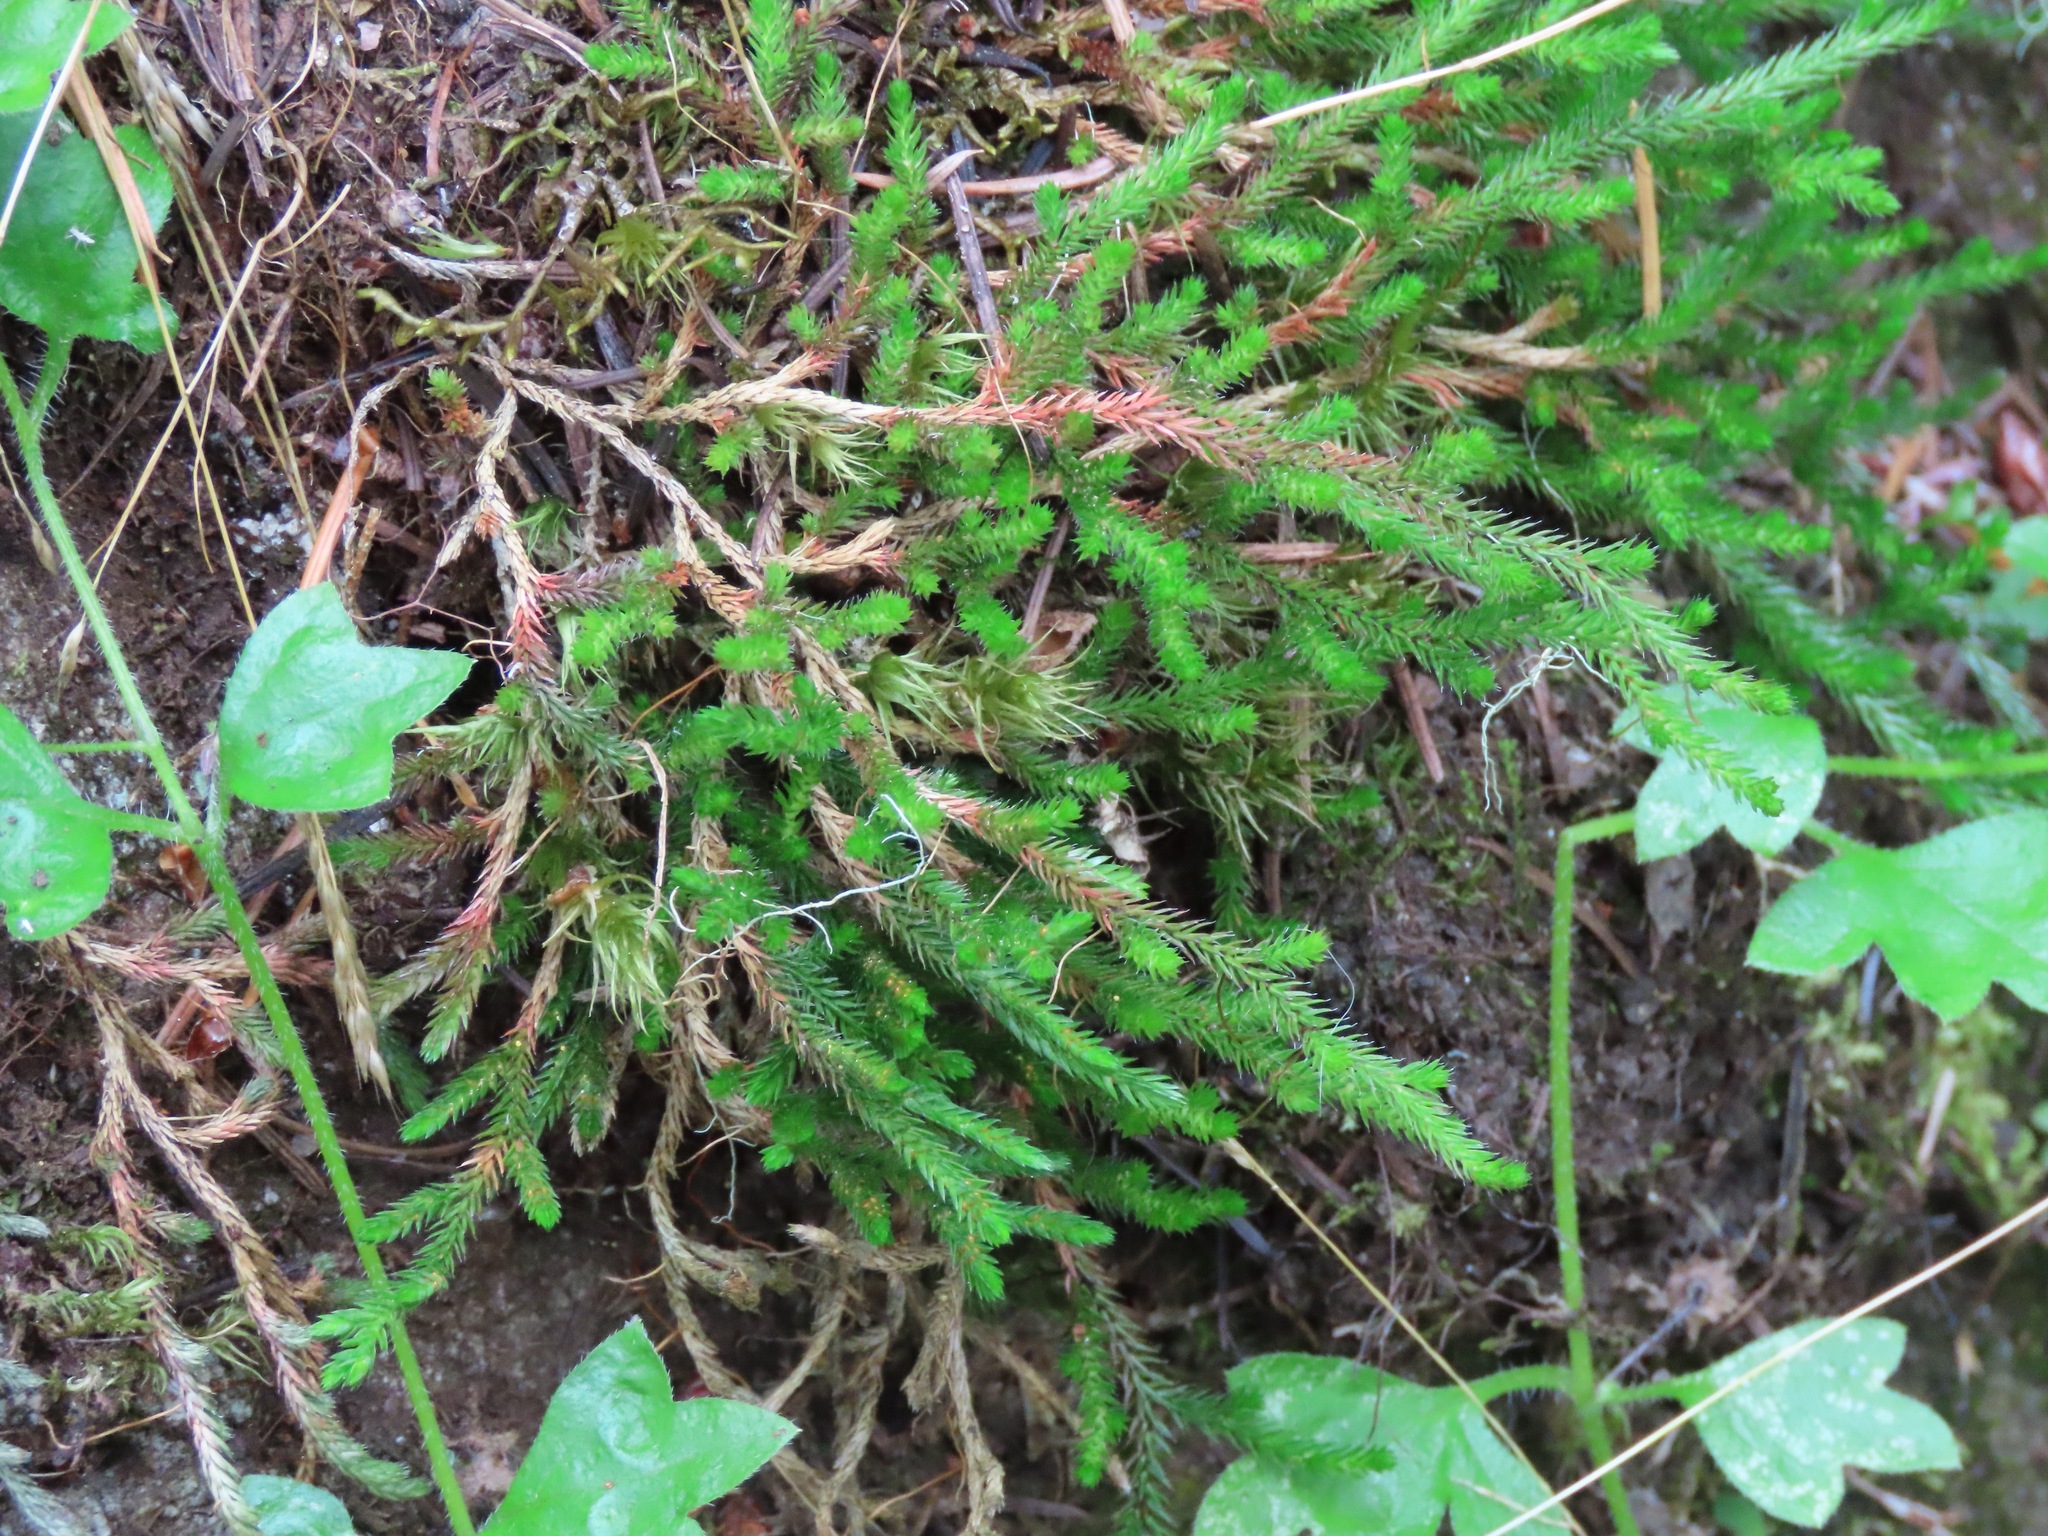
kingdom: Plantae
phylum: Tracheophyta
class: Lycopodiopsida
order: Selaginellales
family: Selaginellaceae
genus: Selaginella
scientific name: Selaginella wallacei
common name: Wallace's selaginella
